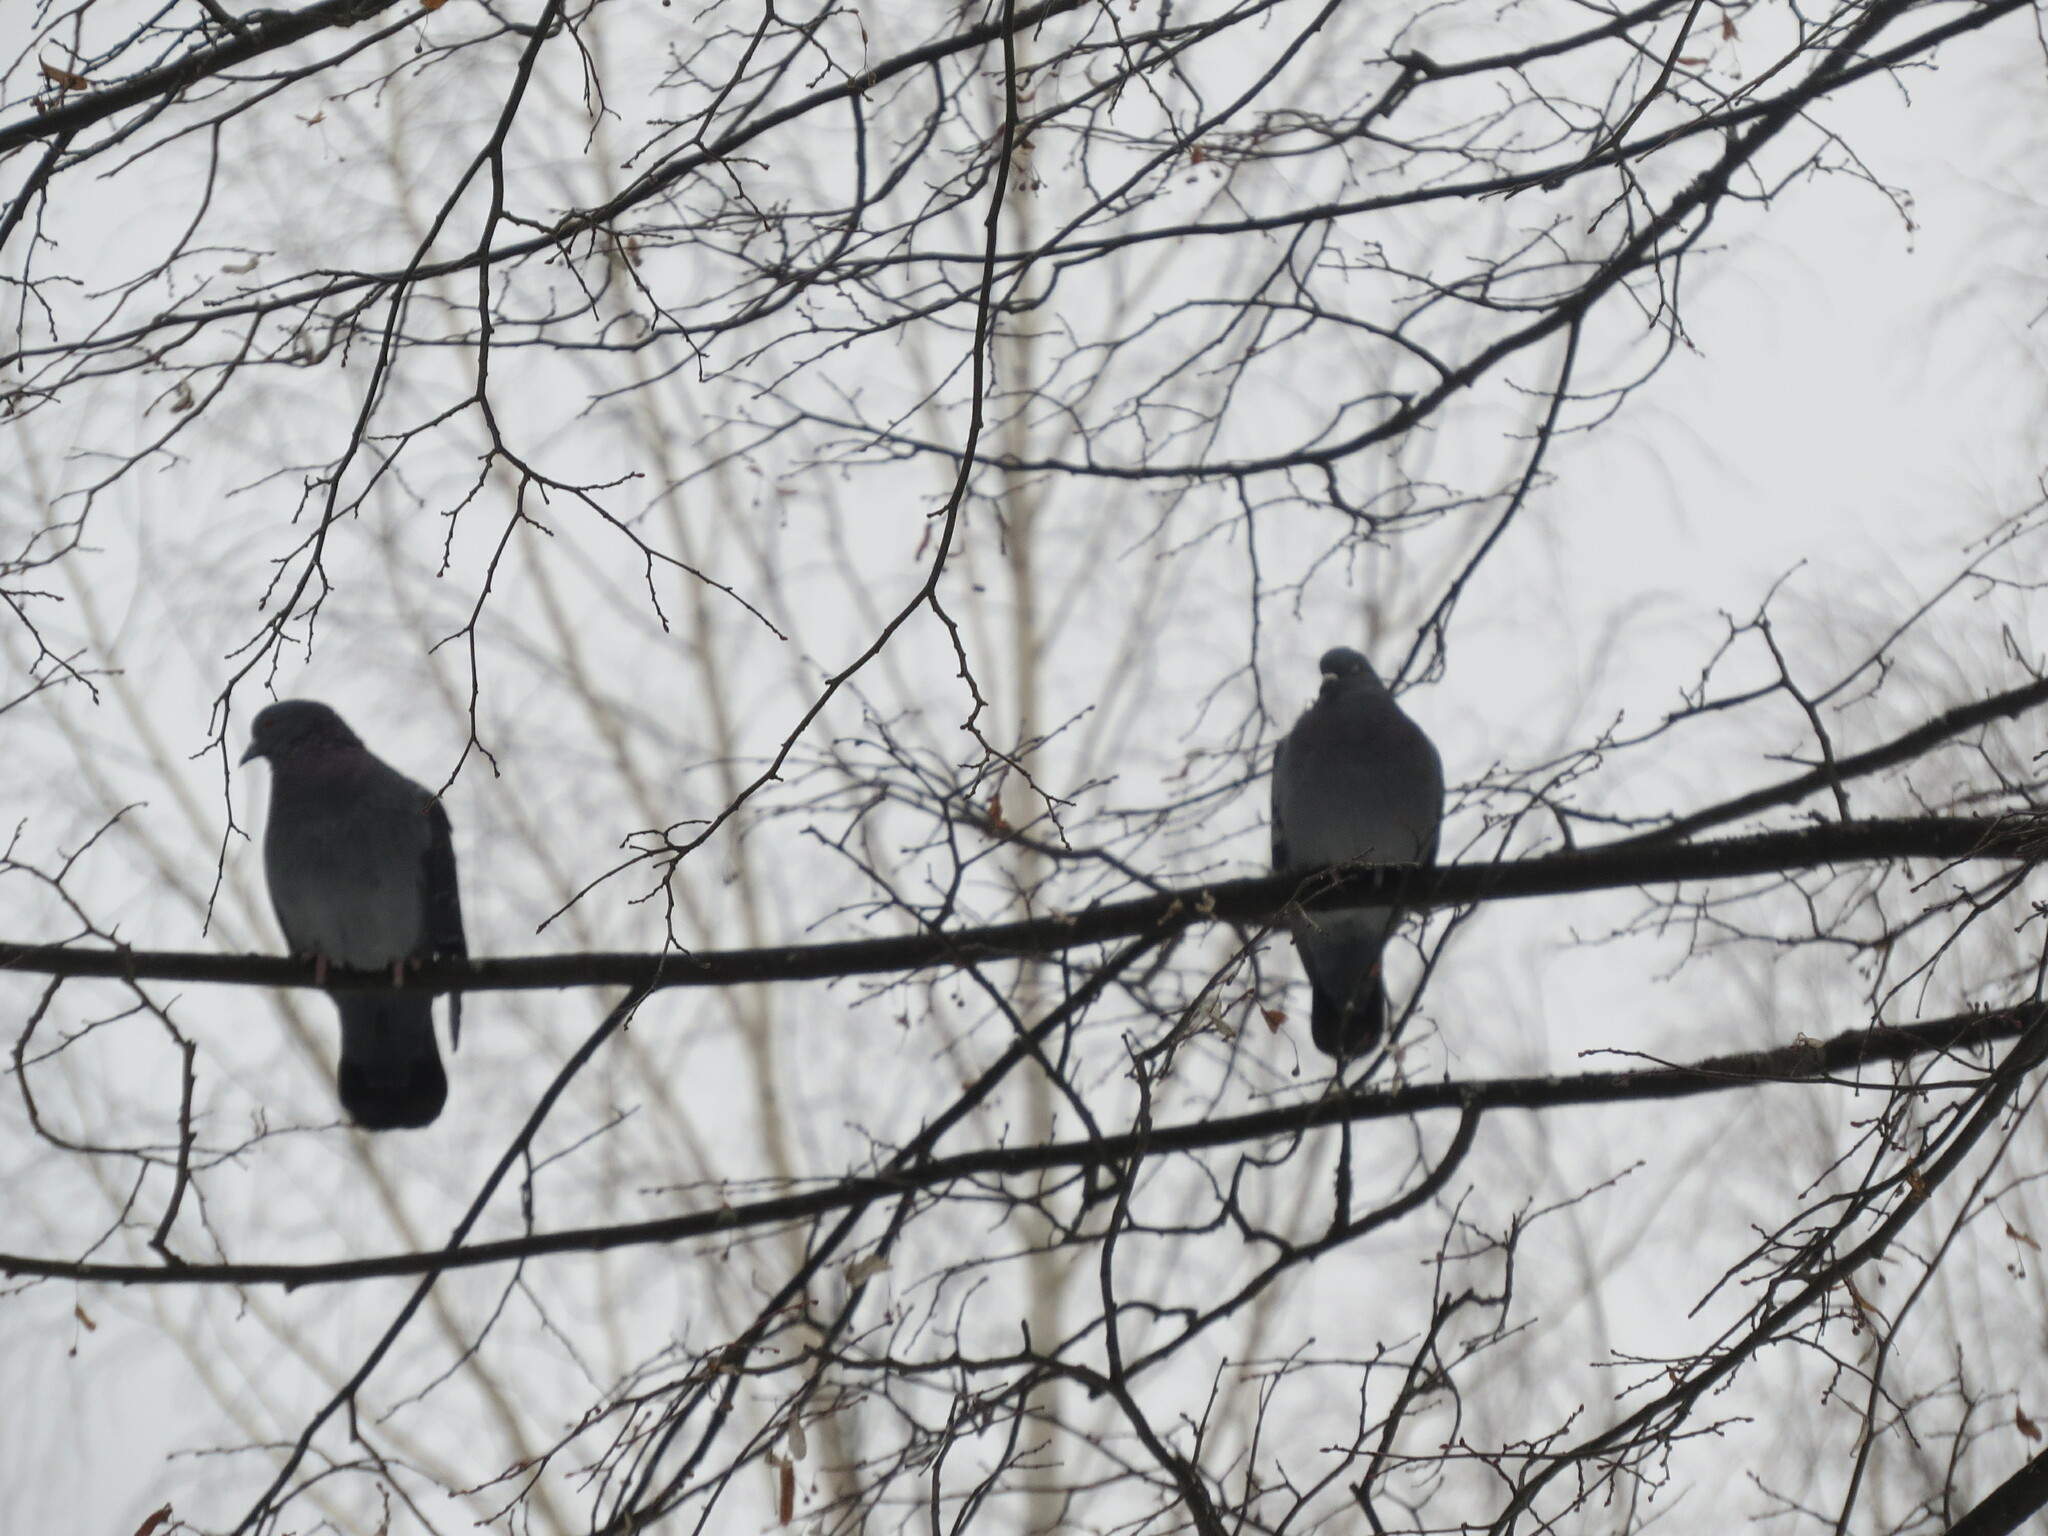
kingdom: Animalia
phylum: Chordata
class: Aves
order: Columbiformes
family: Columbidae
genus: Columba
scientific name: Columba livia
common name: Rock pigeon
